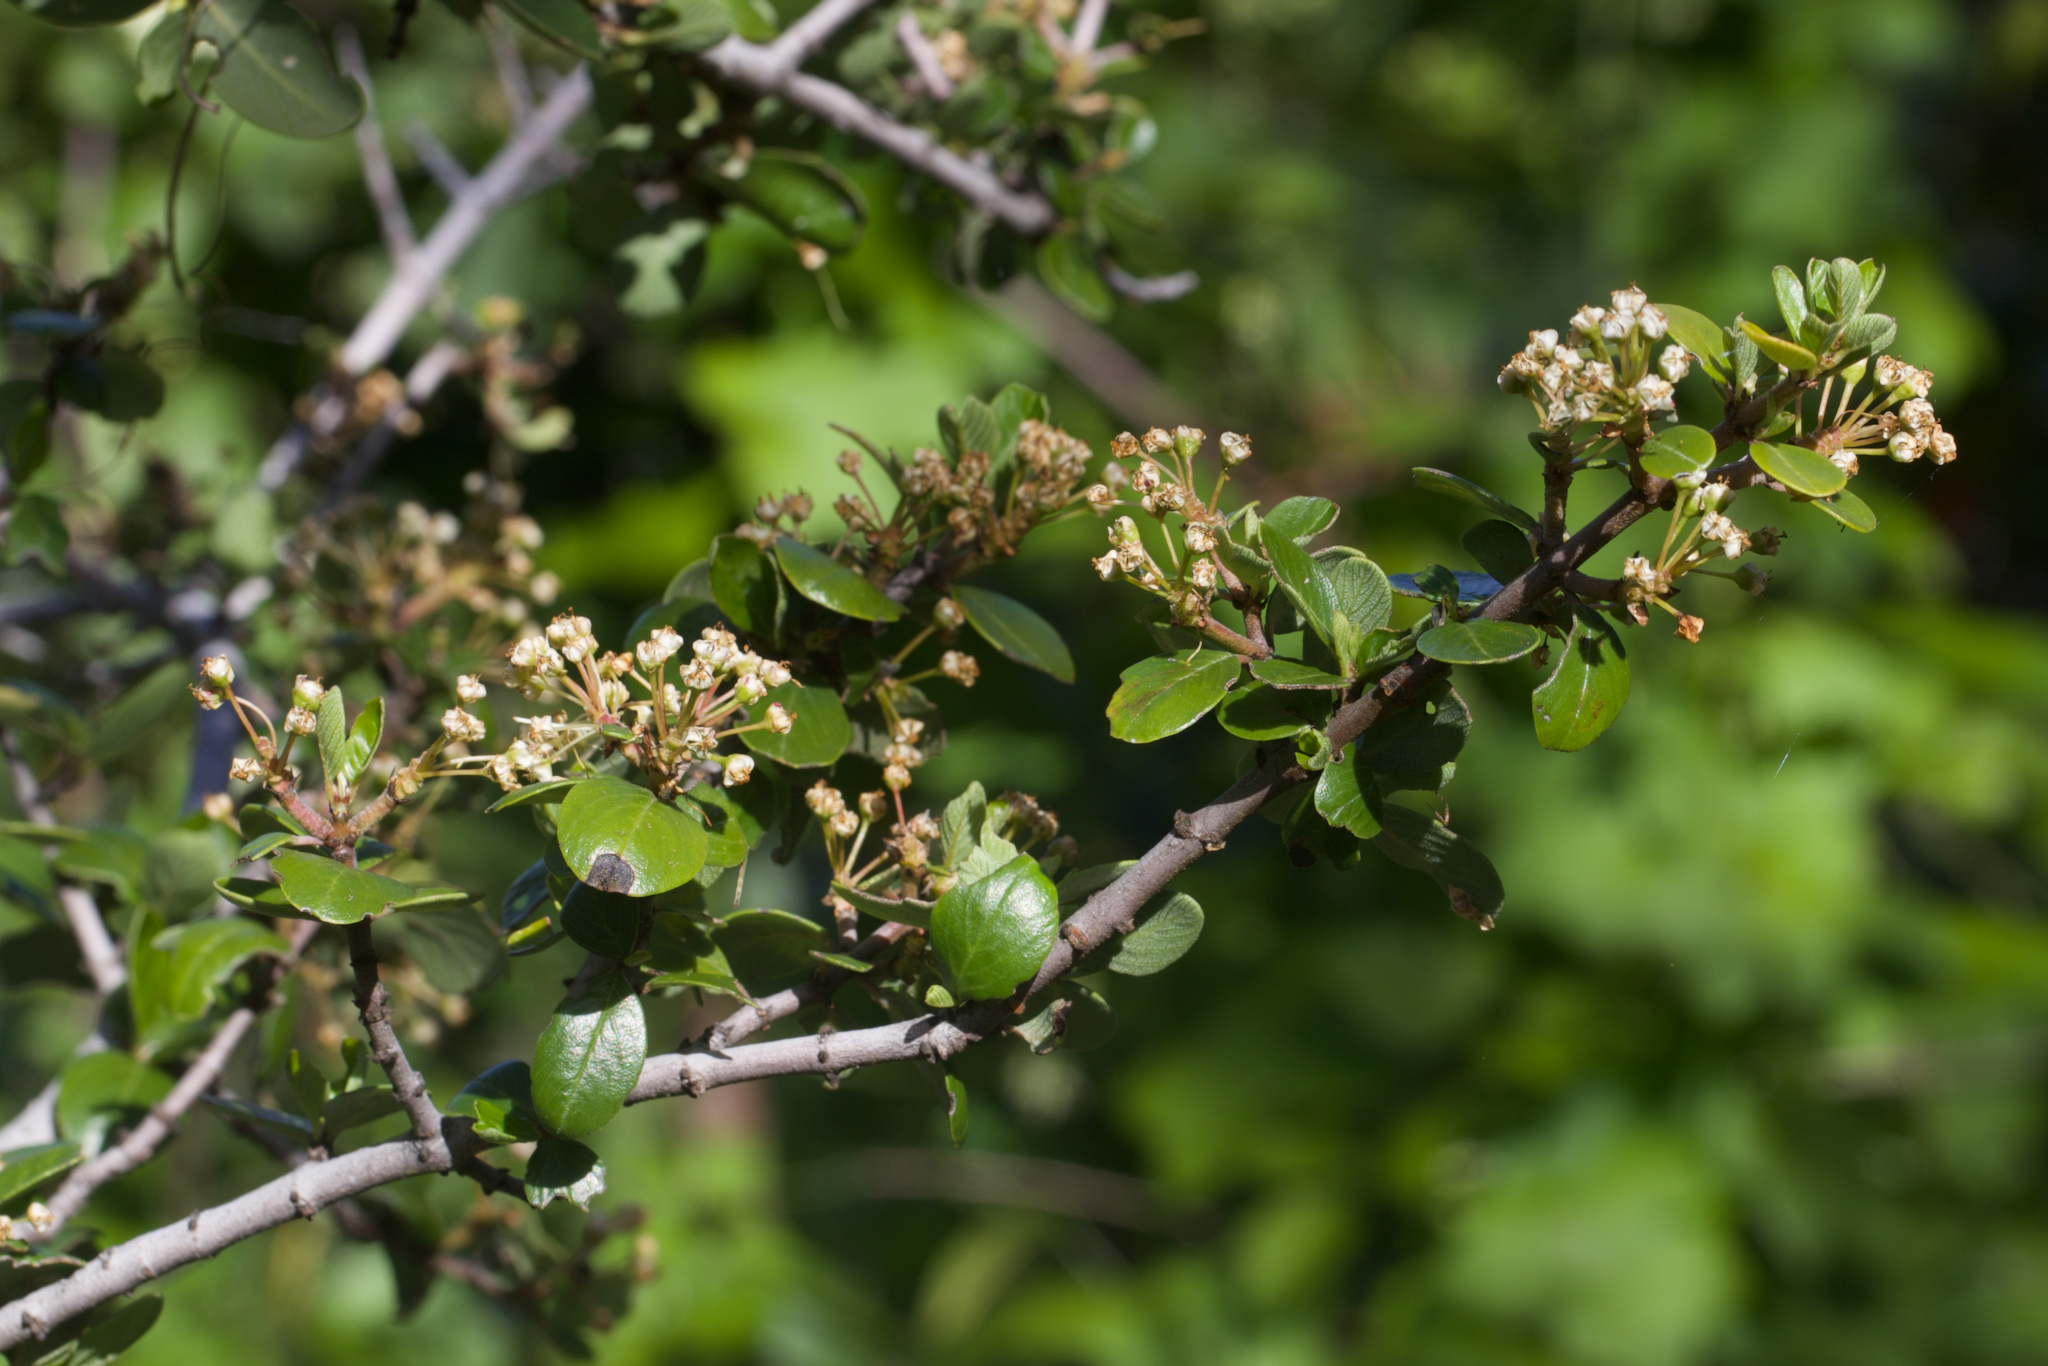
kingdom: Plantae
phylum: Tracheophyta
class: Magnoliopsida
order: Rosales
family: Rhamnaceae
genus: Ceanothus
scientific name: Ceanothus cuneatus
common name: Cuneate ceanothus
